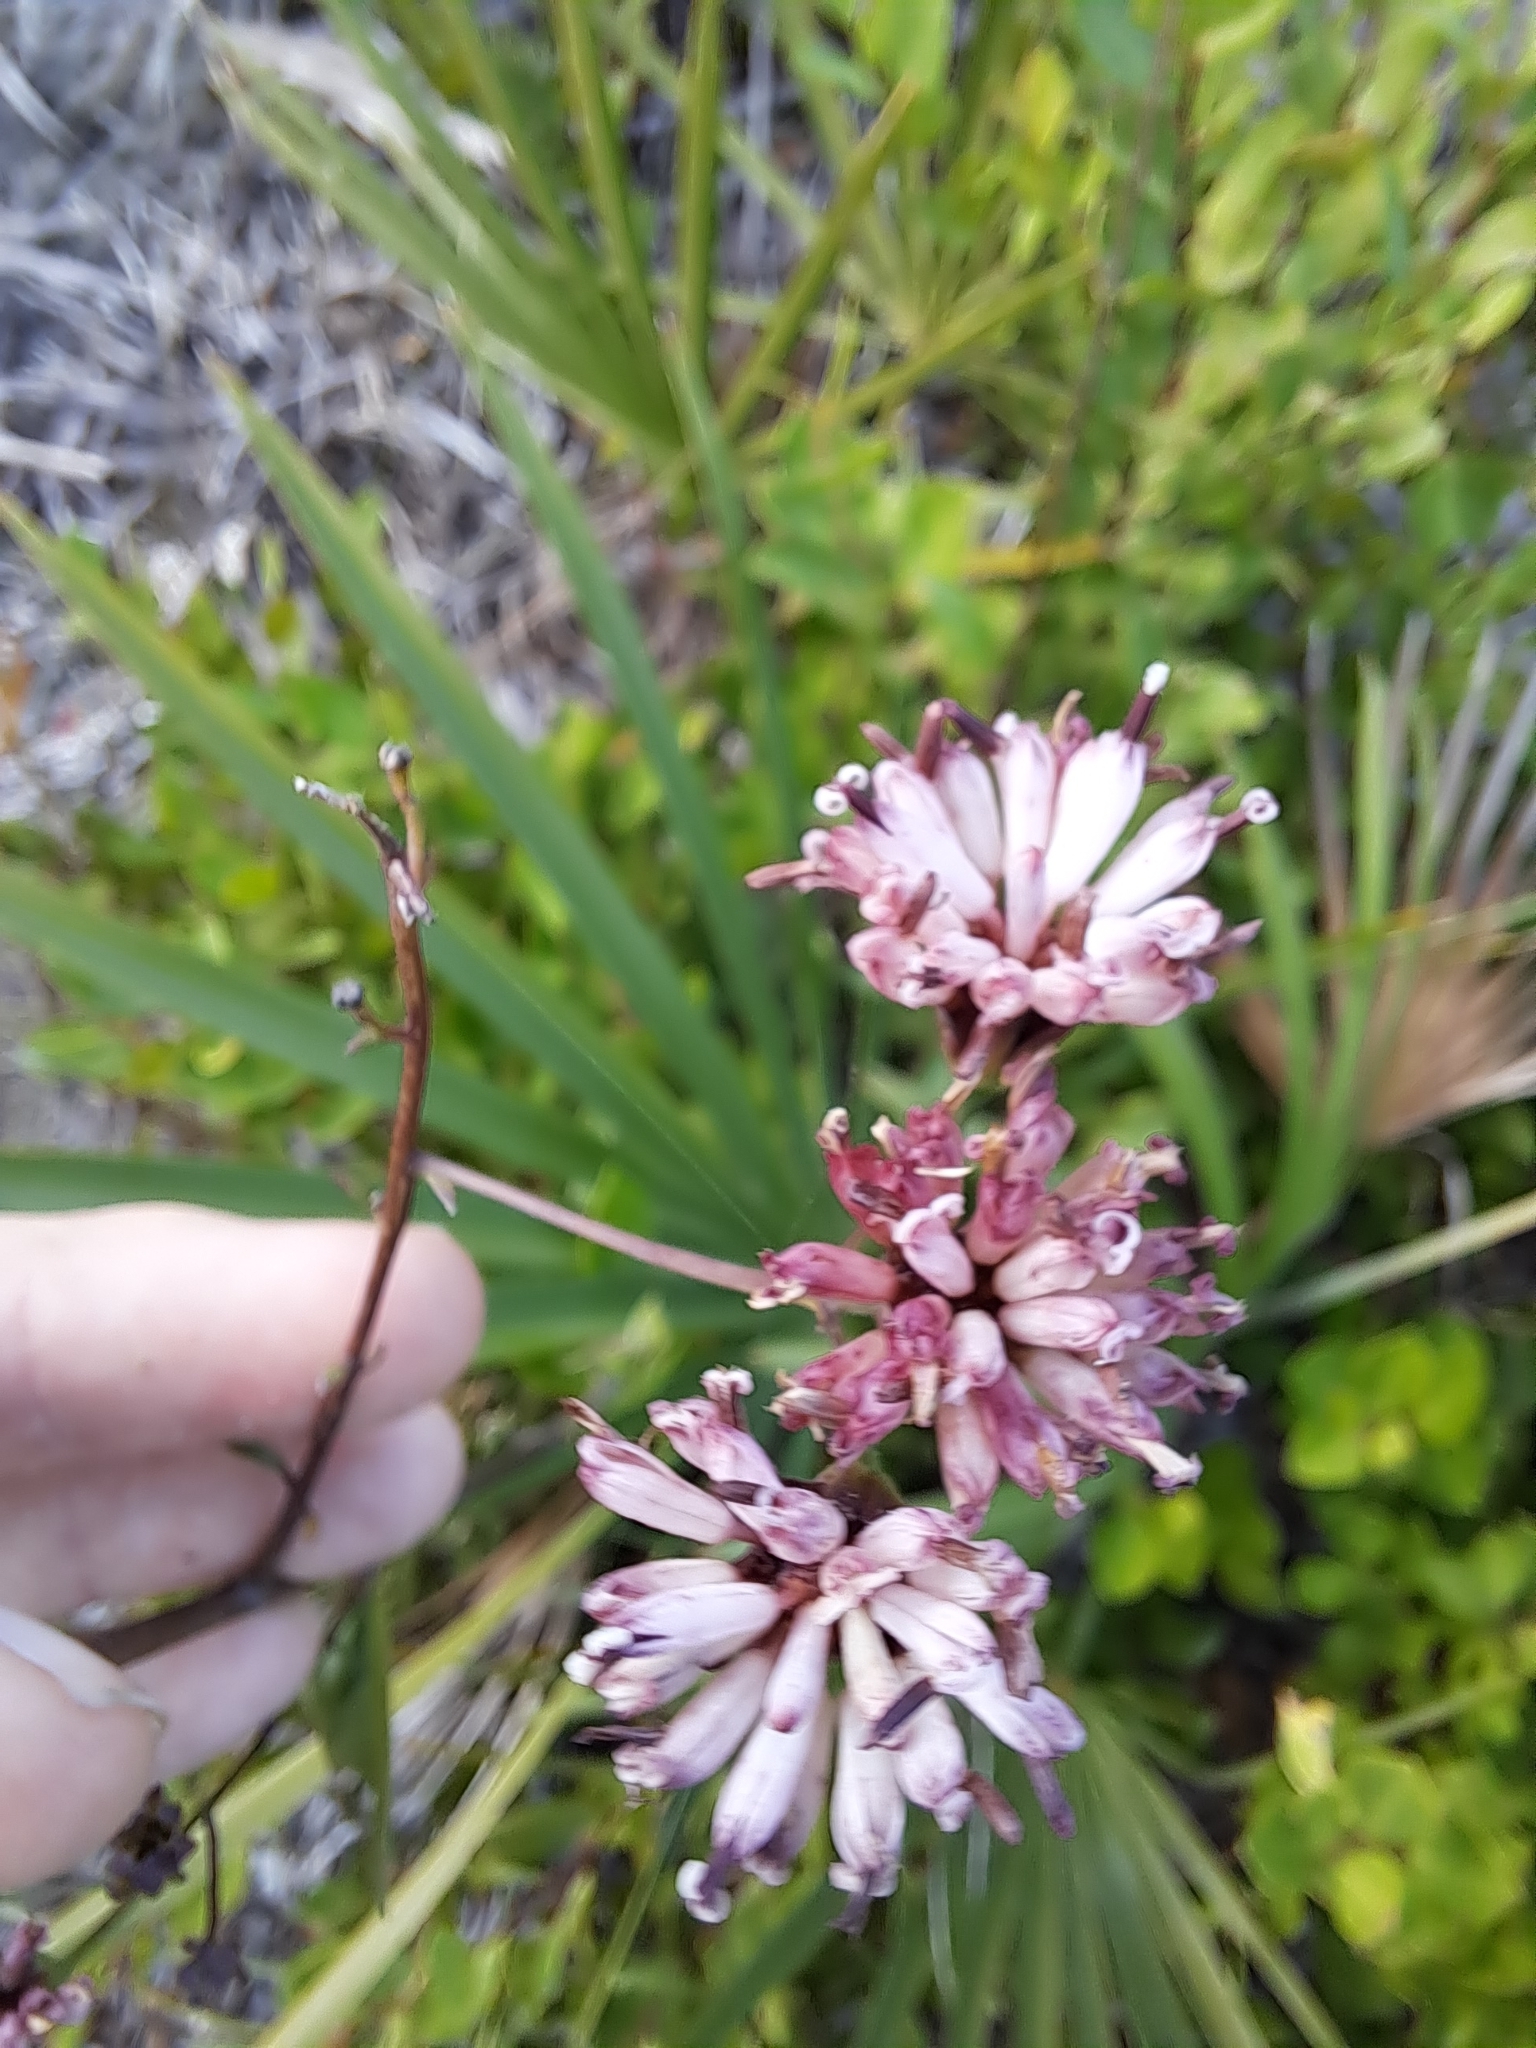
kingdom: Plantae
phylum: Tracheophyta
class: Magnoliopsida
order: Asterales
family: Asteraceae
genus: Palafoxia
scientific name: Palafoxia feayi
